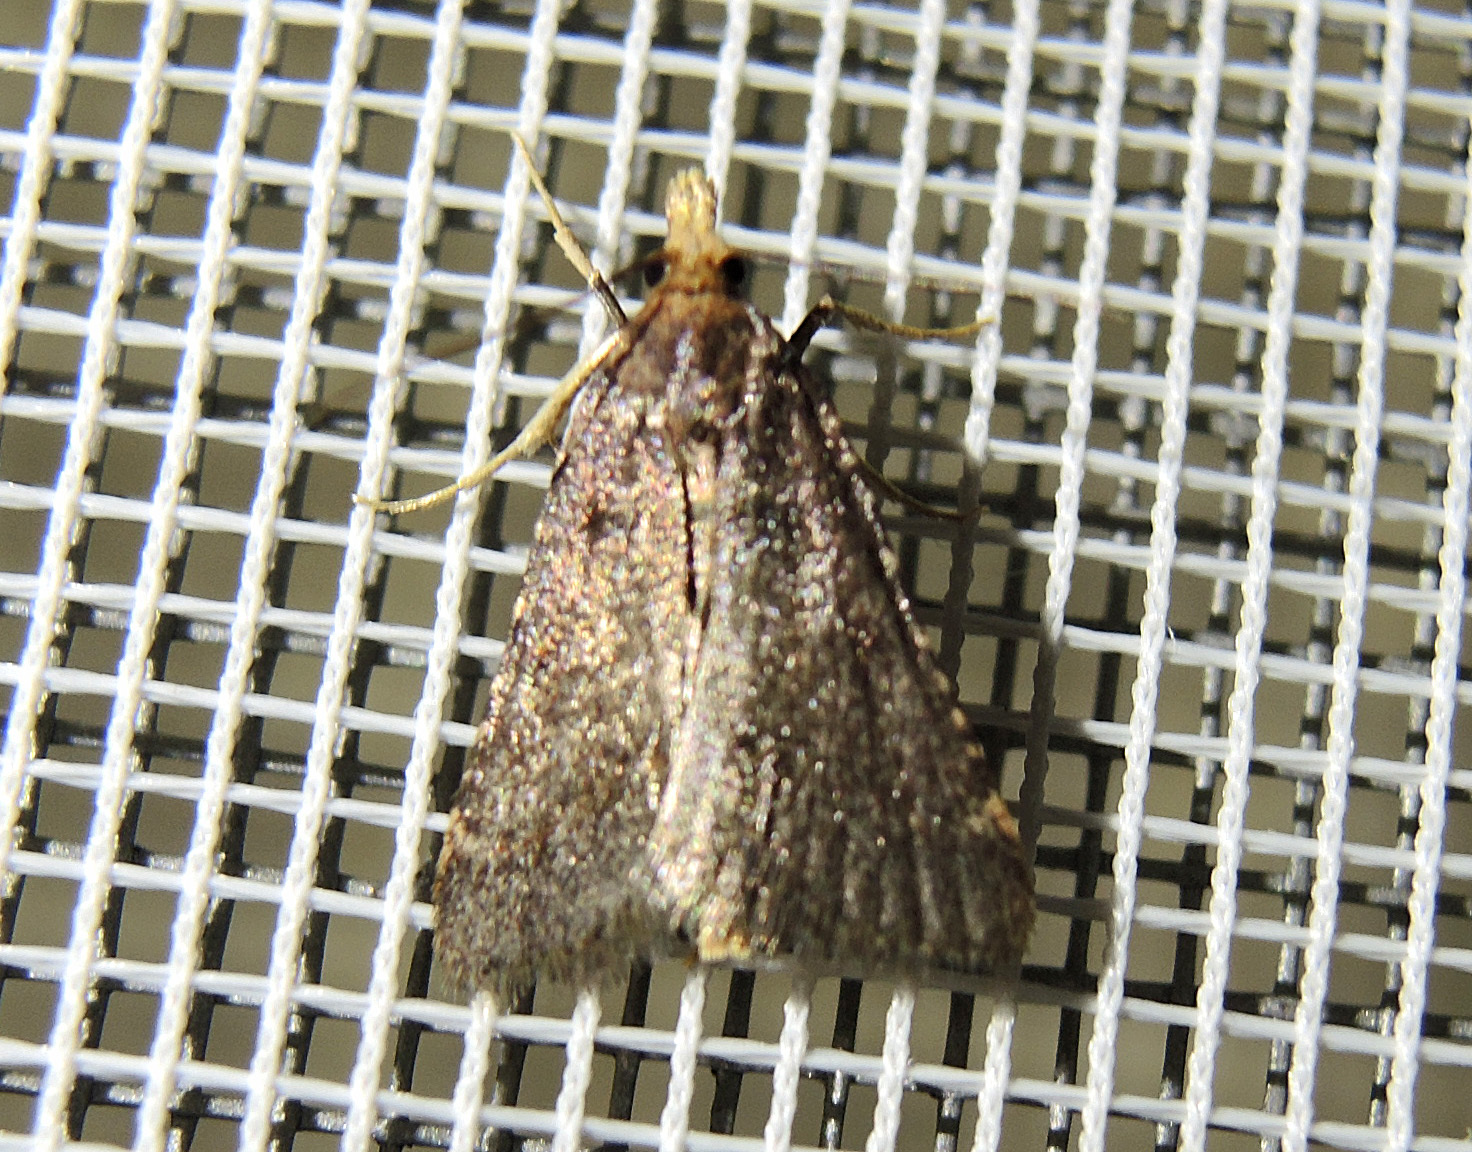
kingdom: Animalia
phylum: Arthropoda
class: Insecta
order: Lepidoptera
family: Pyralidae
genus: Stemmatophora
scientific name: Stemmatophora brunnealis
